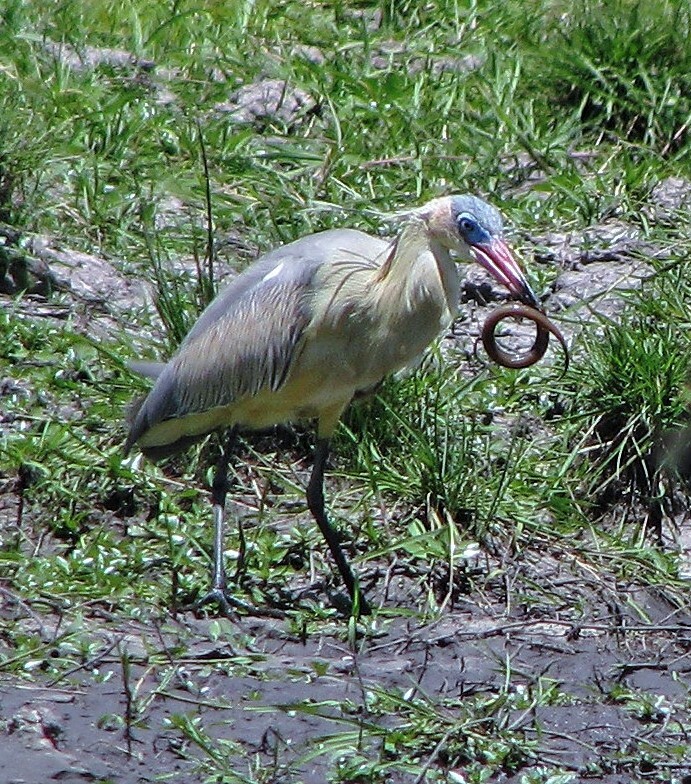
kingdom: Animalia
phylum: Chordata
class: Aves
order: Pelecaniformes
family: Ardeidae
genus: Syrigma
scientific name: Syrigma sibilatrix
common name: Whistling heron
